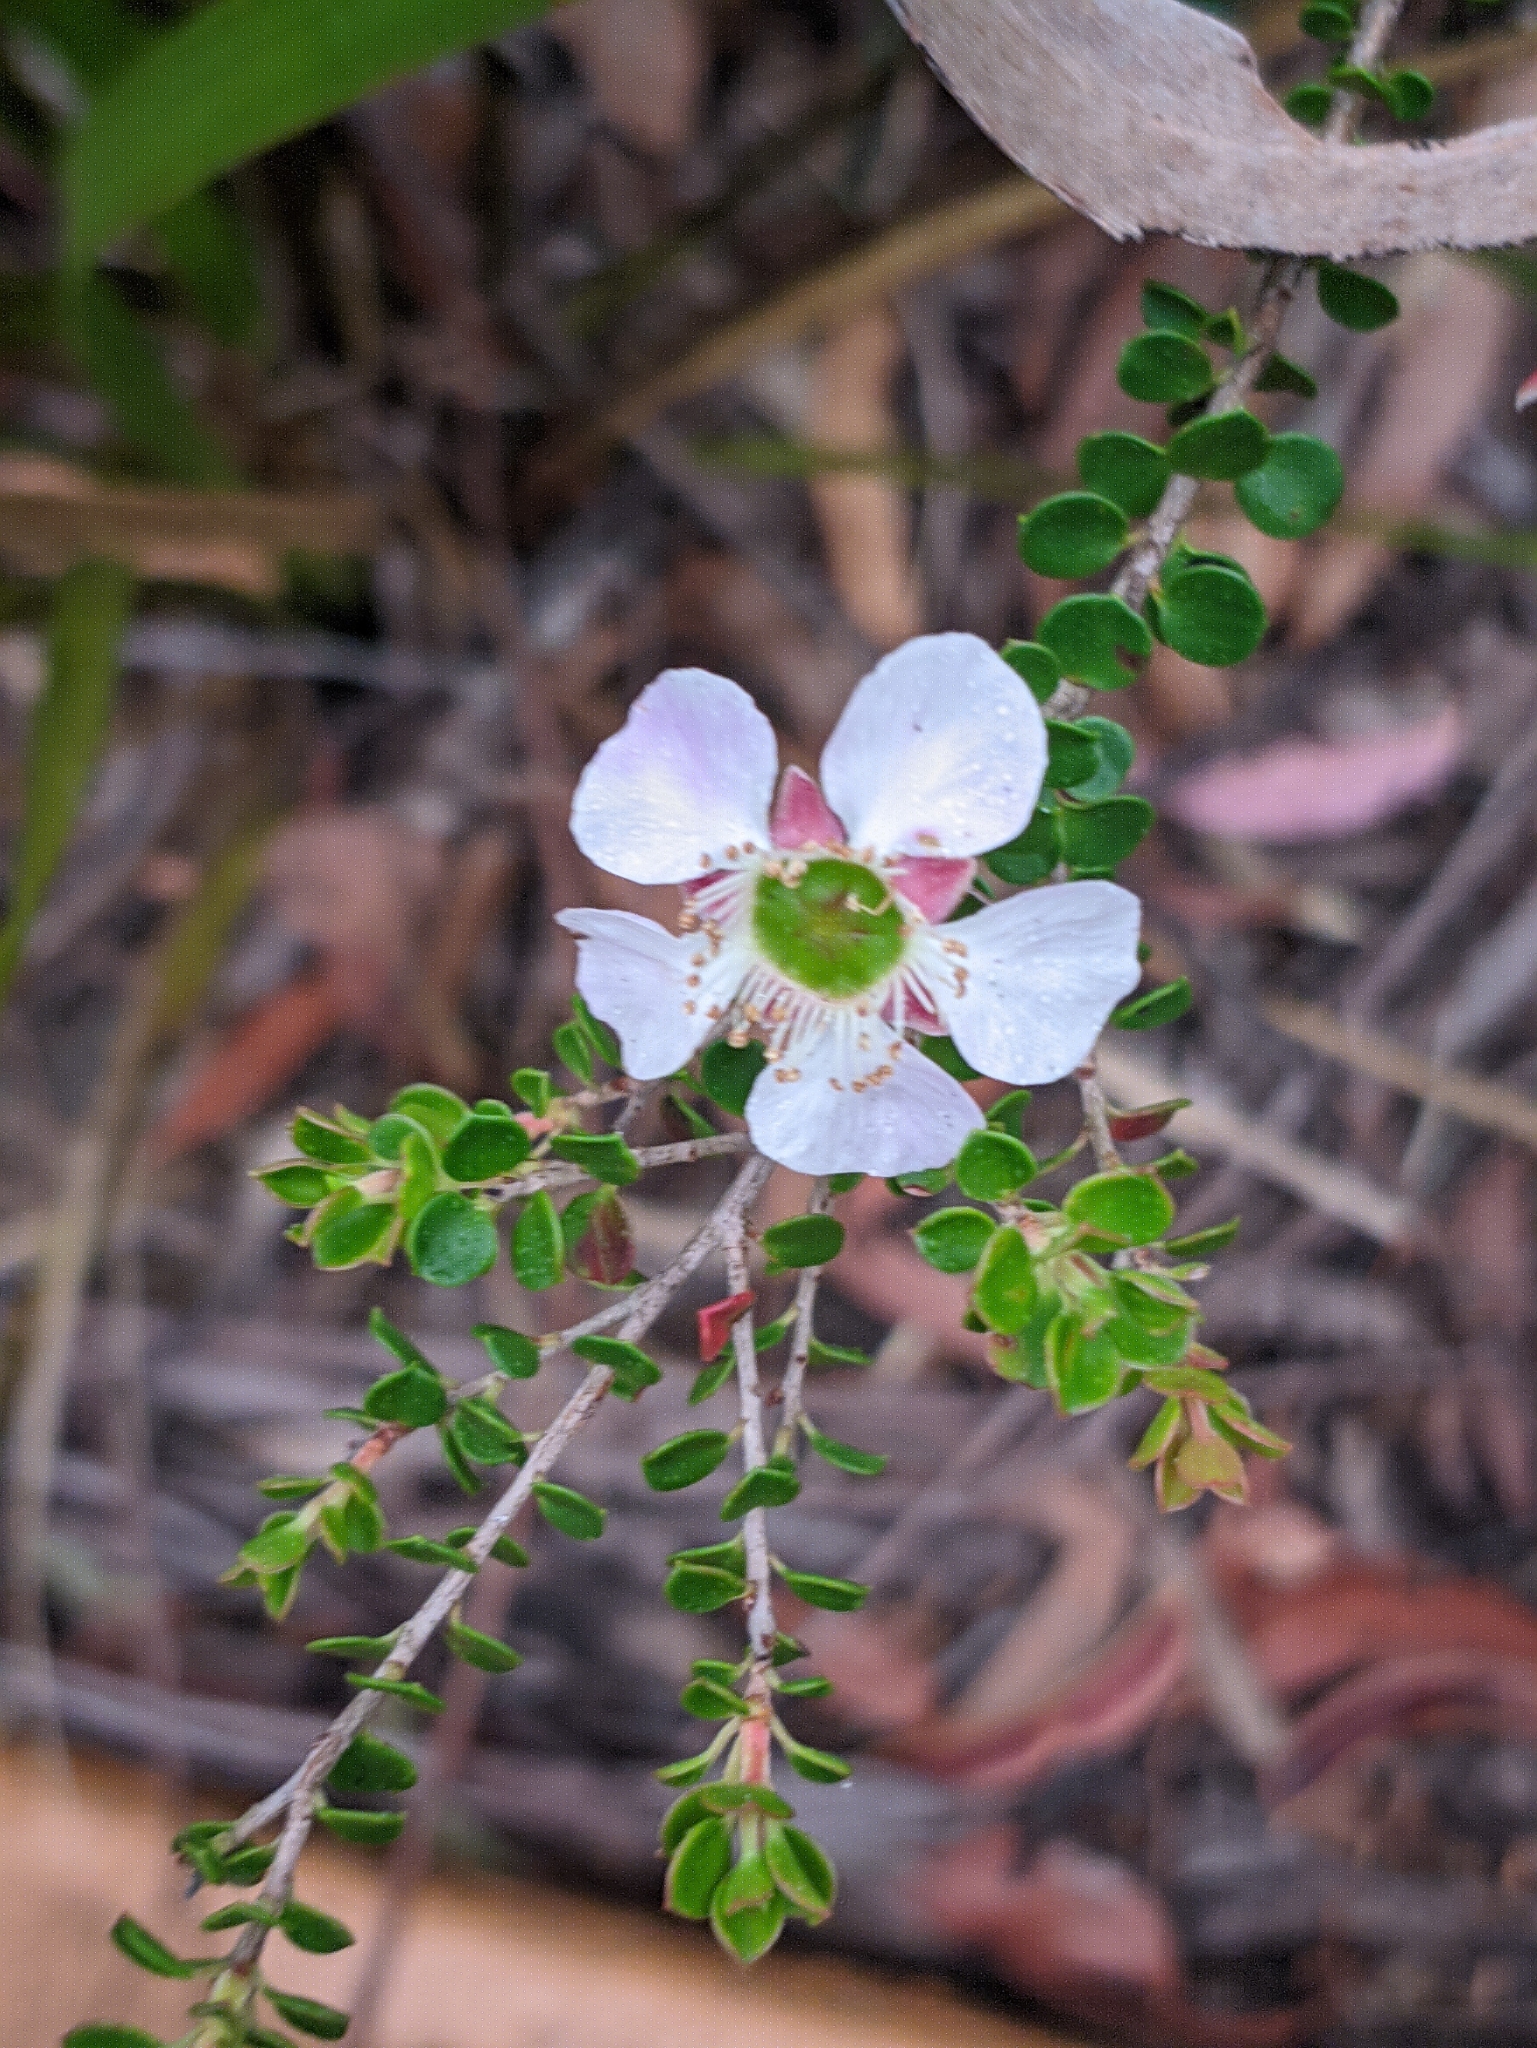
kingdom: Plantae
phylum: Tracheophyta
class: Magnoliopsida
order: Myrtales
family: Myrtaceae
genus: Leptospermum
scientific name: Leptospermum rotundifolium
